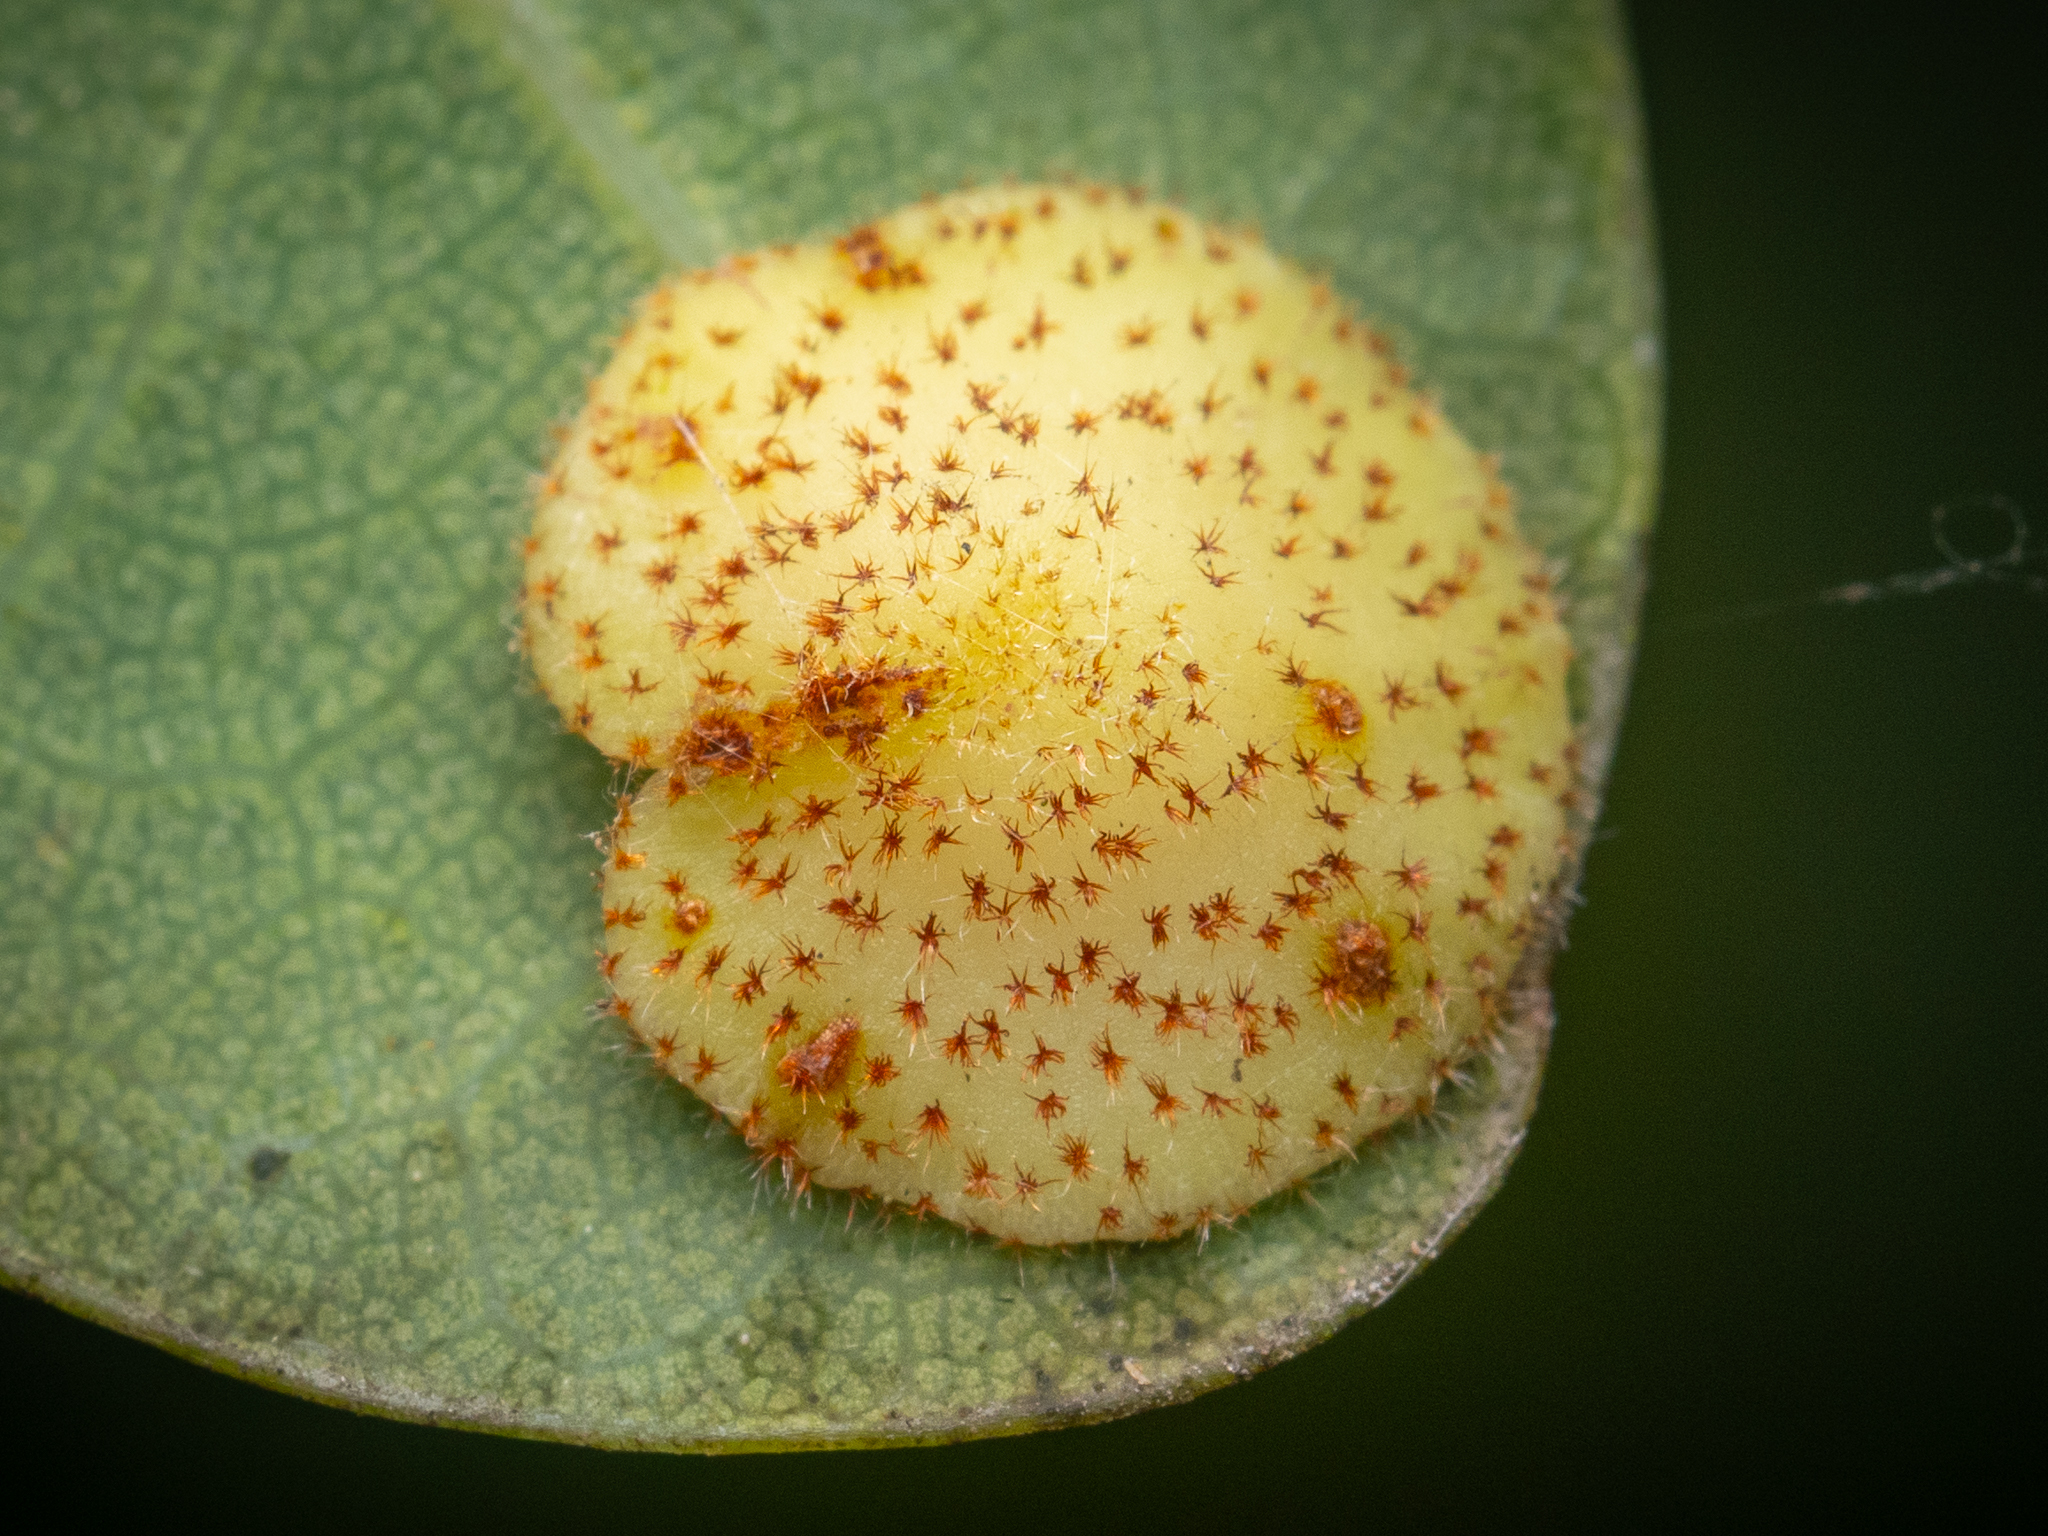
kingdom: Animalia
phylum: Arthropoda
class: Insecta
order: Hymenoptera
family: Cynipidae
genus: Neuroterus
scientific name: Neuroterus quercusbaccarum
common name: Common spangle gall
